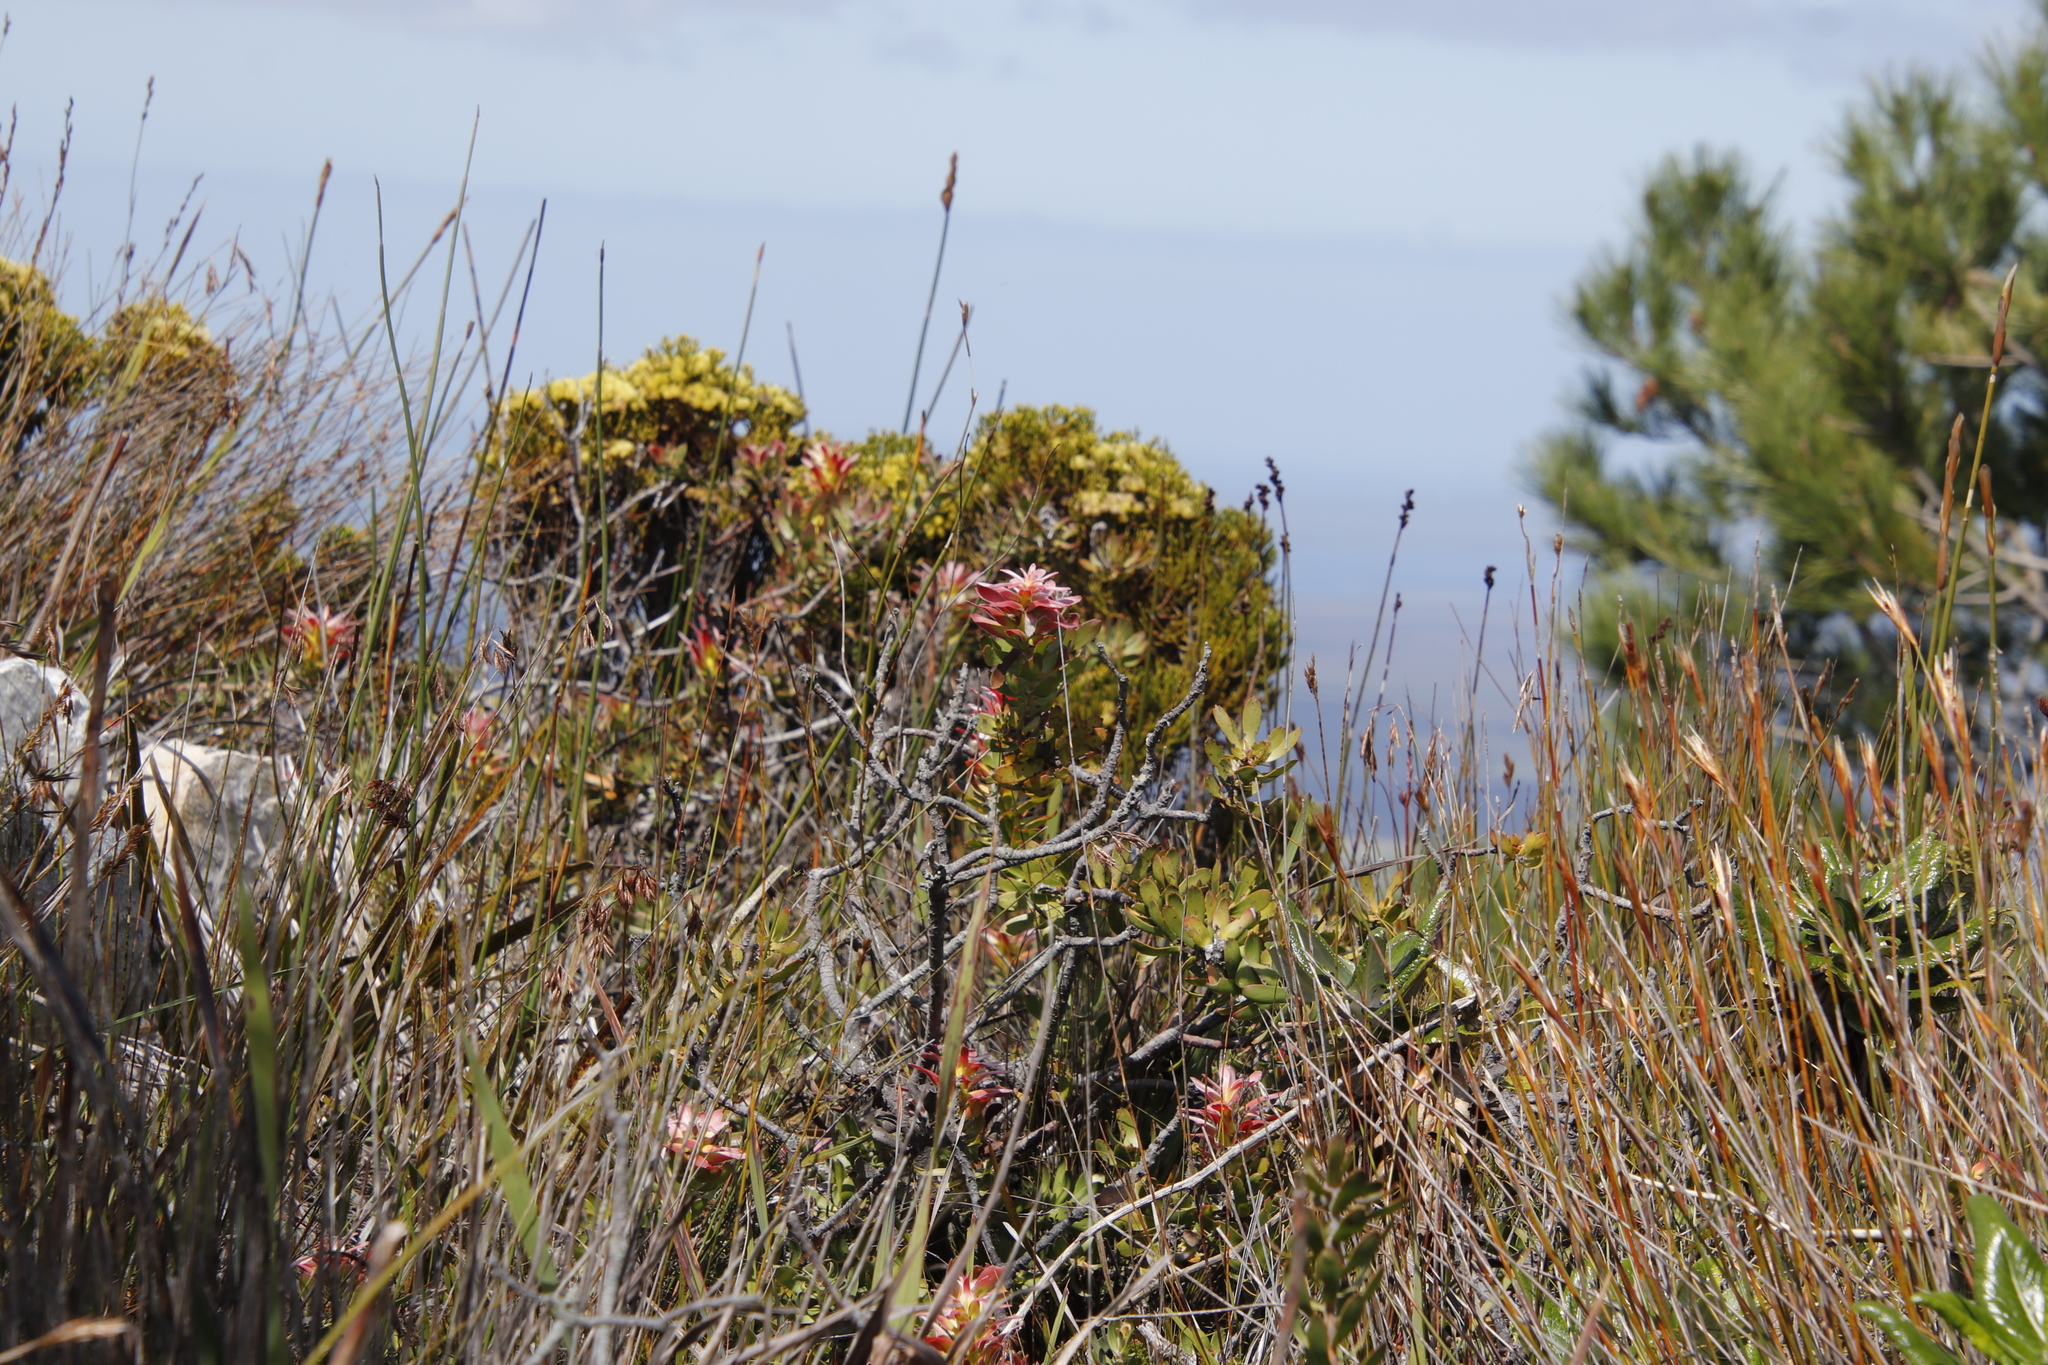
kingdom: Plantae
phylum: Tracheophyta
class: Magnoliopsida
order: Proteales
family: Proteaceae
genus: Mimetes
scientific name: Mimetes cucullatus
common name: Common pagoda
